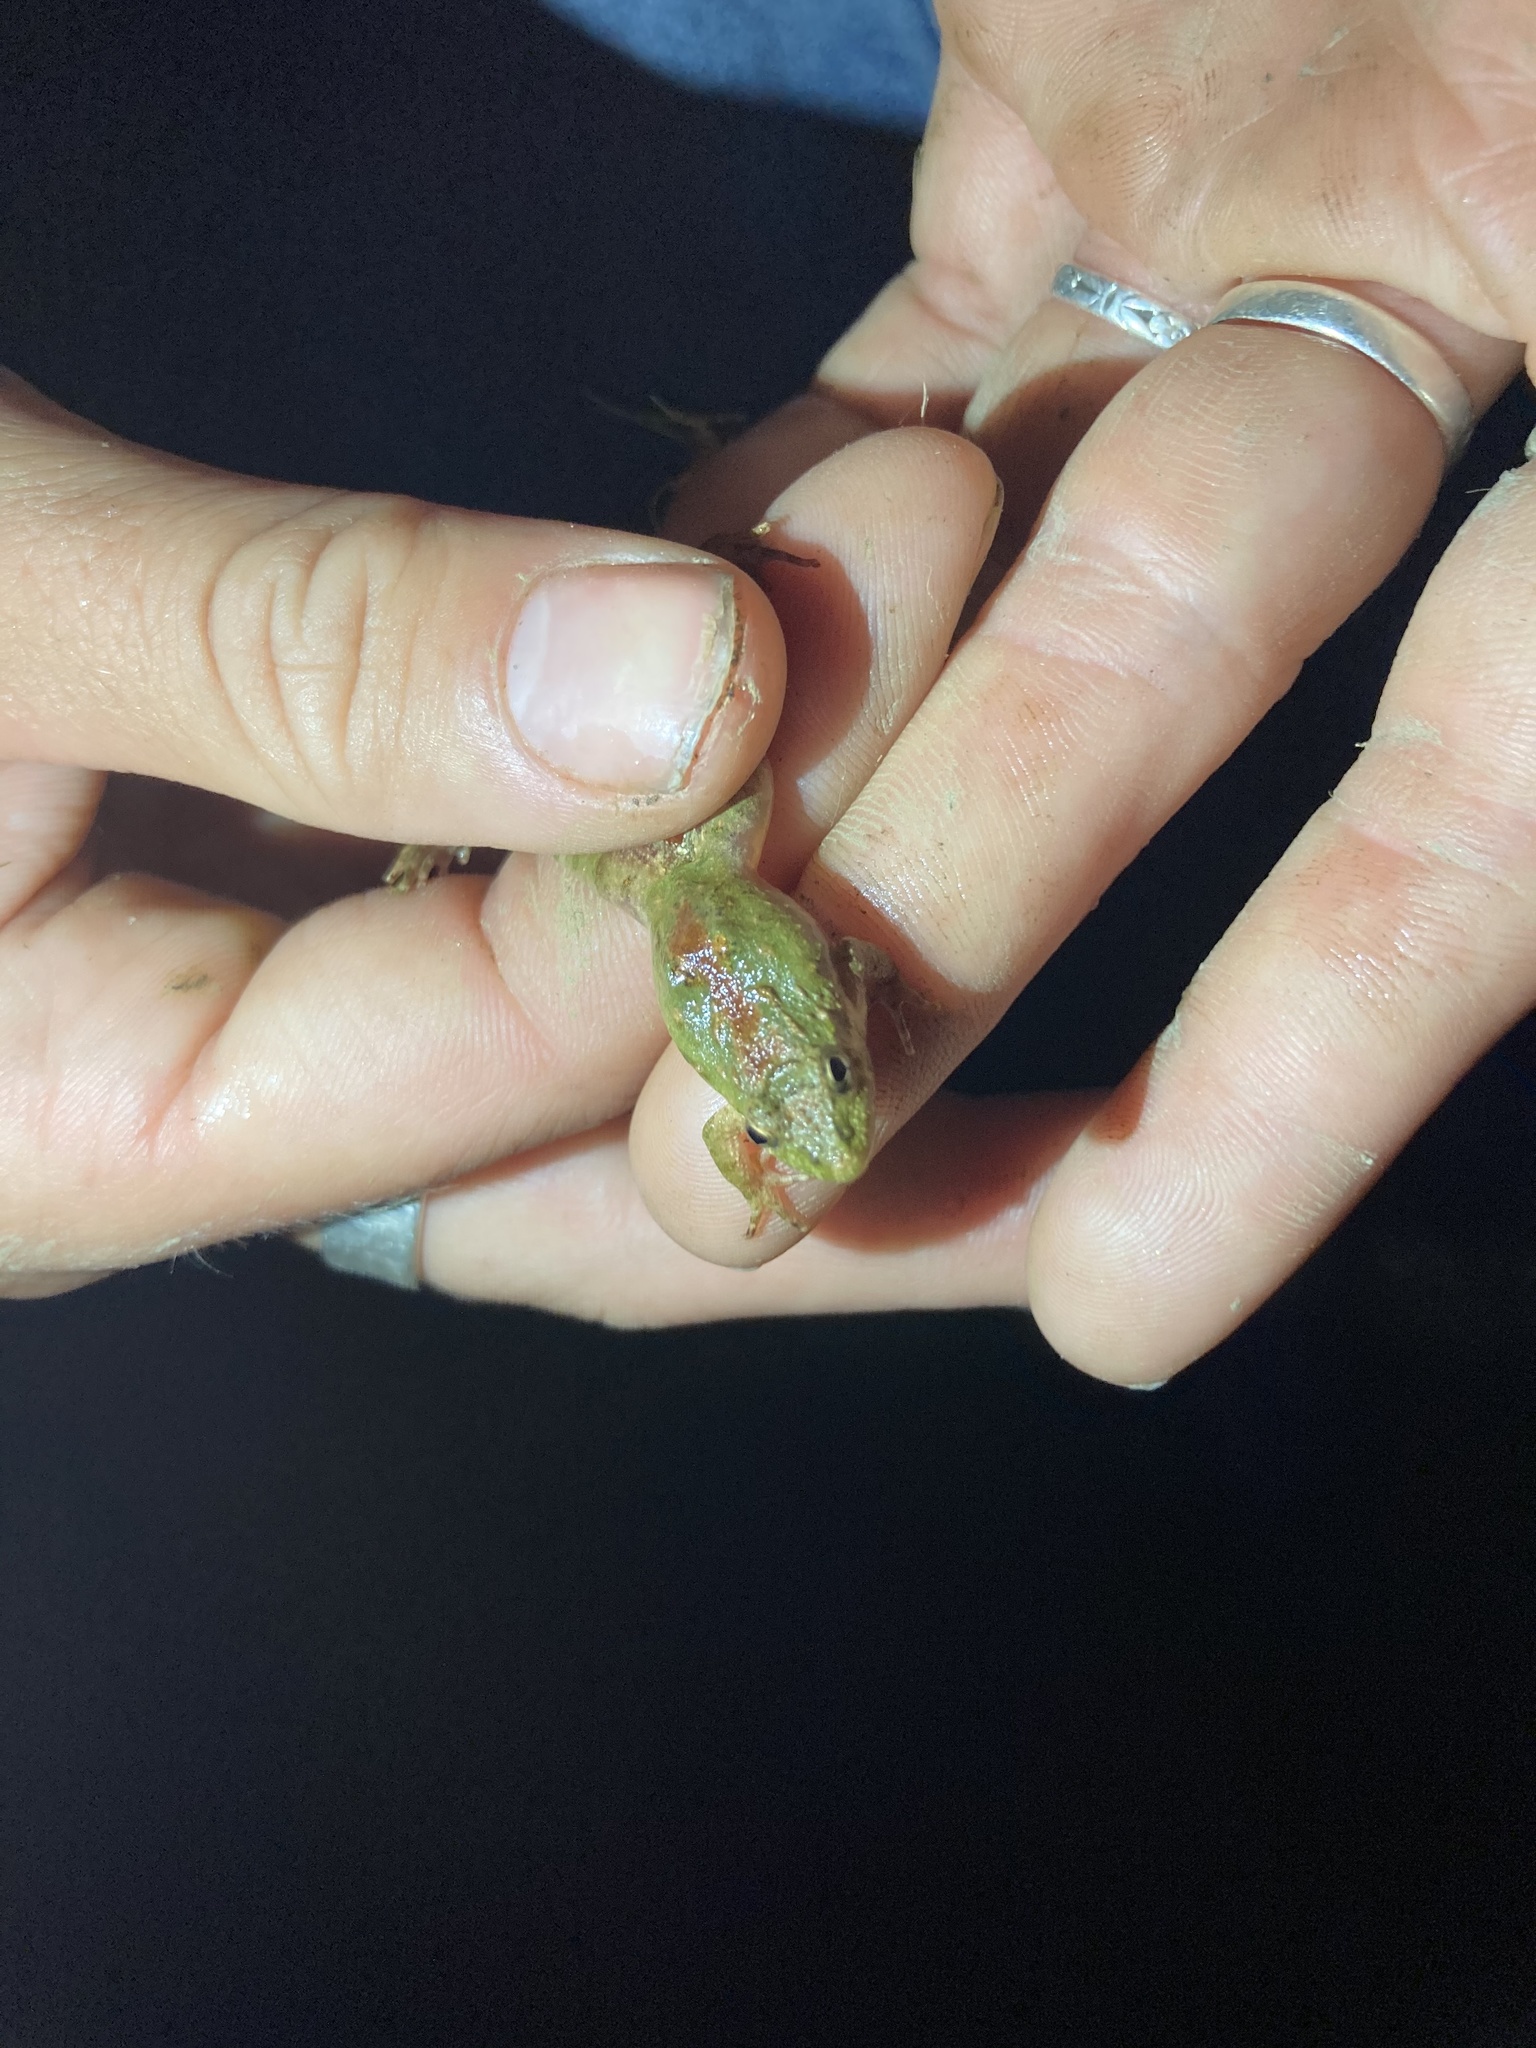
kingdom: Animalia
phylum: Chordata
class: Amphibia
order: Anura
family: Hylidae
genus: Acris
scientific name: Acris blanchardi
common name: Blanchard's cricket frog
